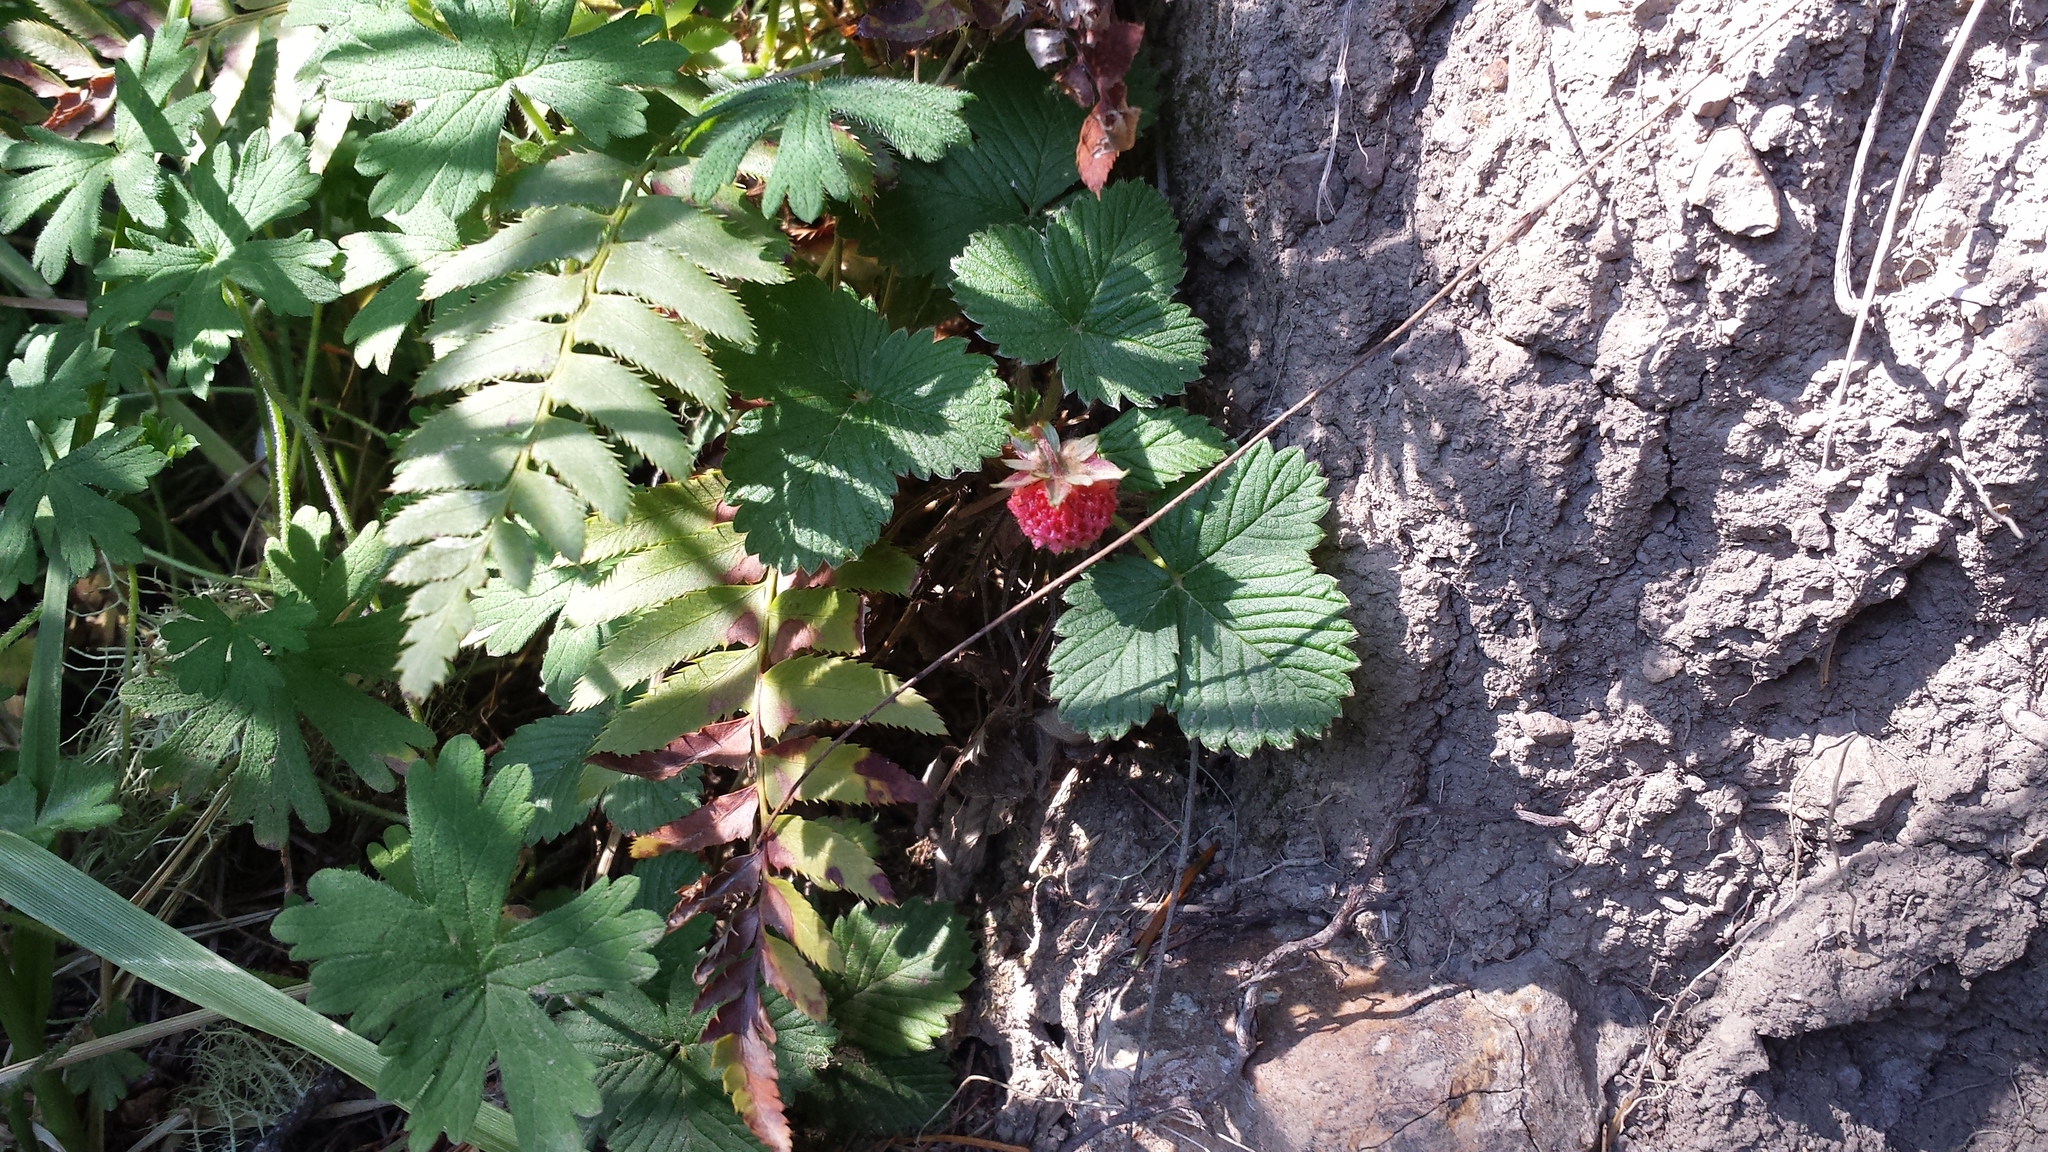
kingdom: Plantae
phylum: Tracheophyta
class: Magnoliopsida
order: Rosales
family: Rosaceae
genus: Fragaria
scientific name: Fragaria vesca
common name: Wild strawberry
